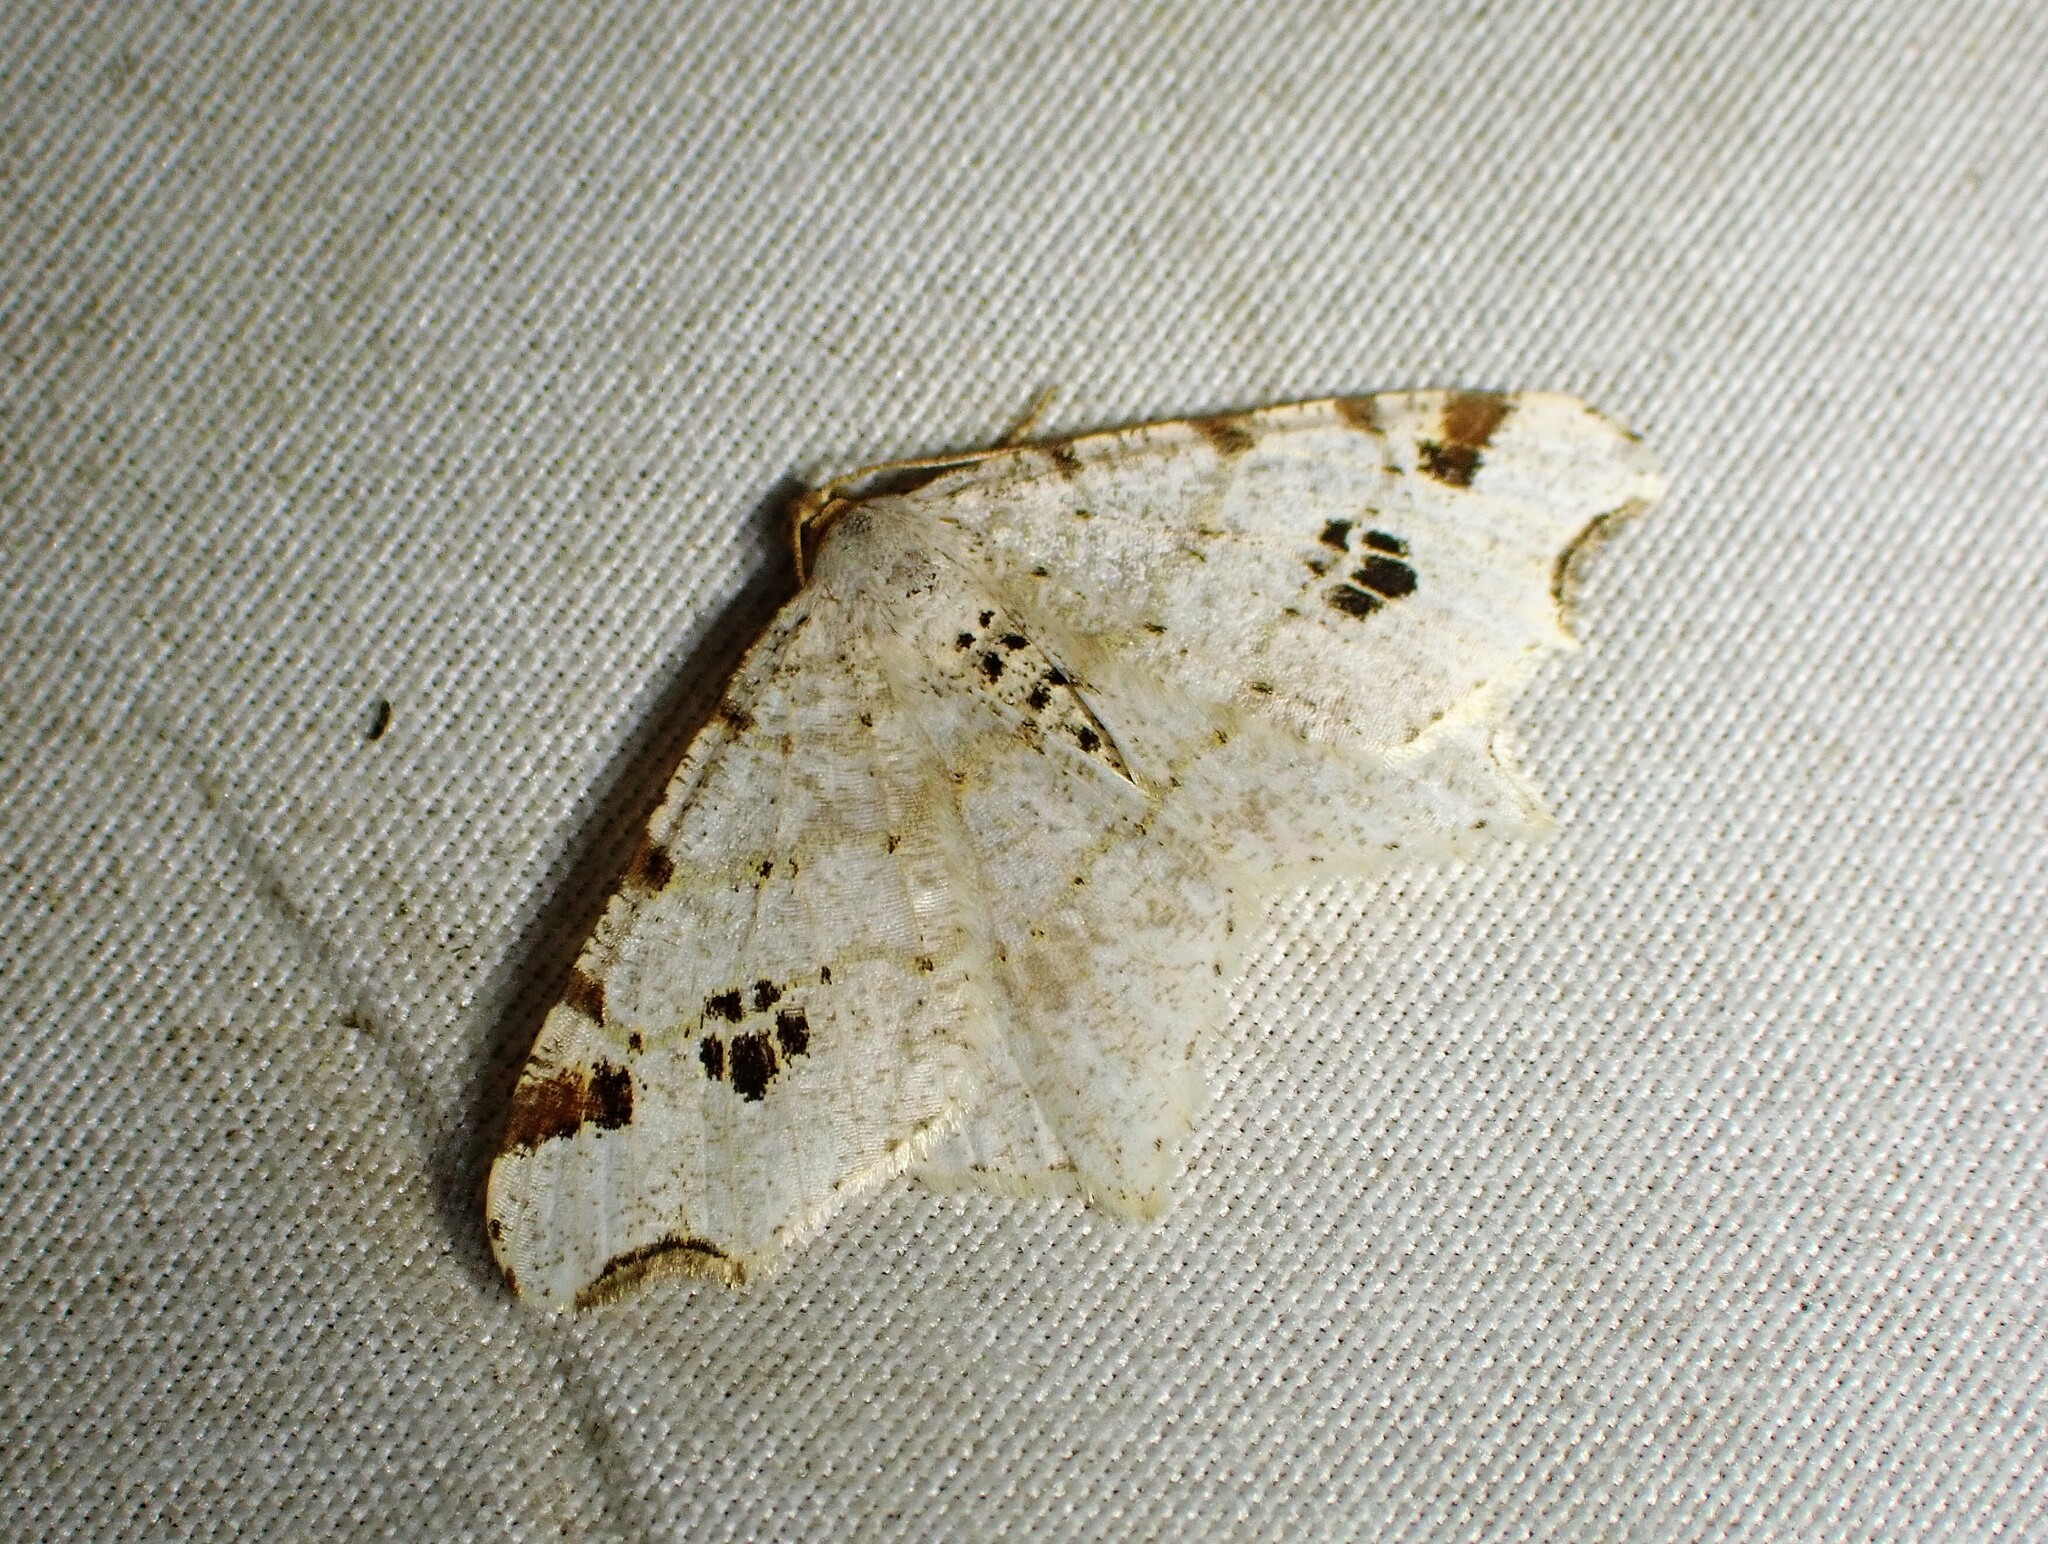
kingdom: Animalia
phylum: Arthropoda
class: Insecta
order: Lepidoptera
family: Geometridae
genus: Macaria
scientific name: Macaria ulsterata
